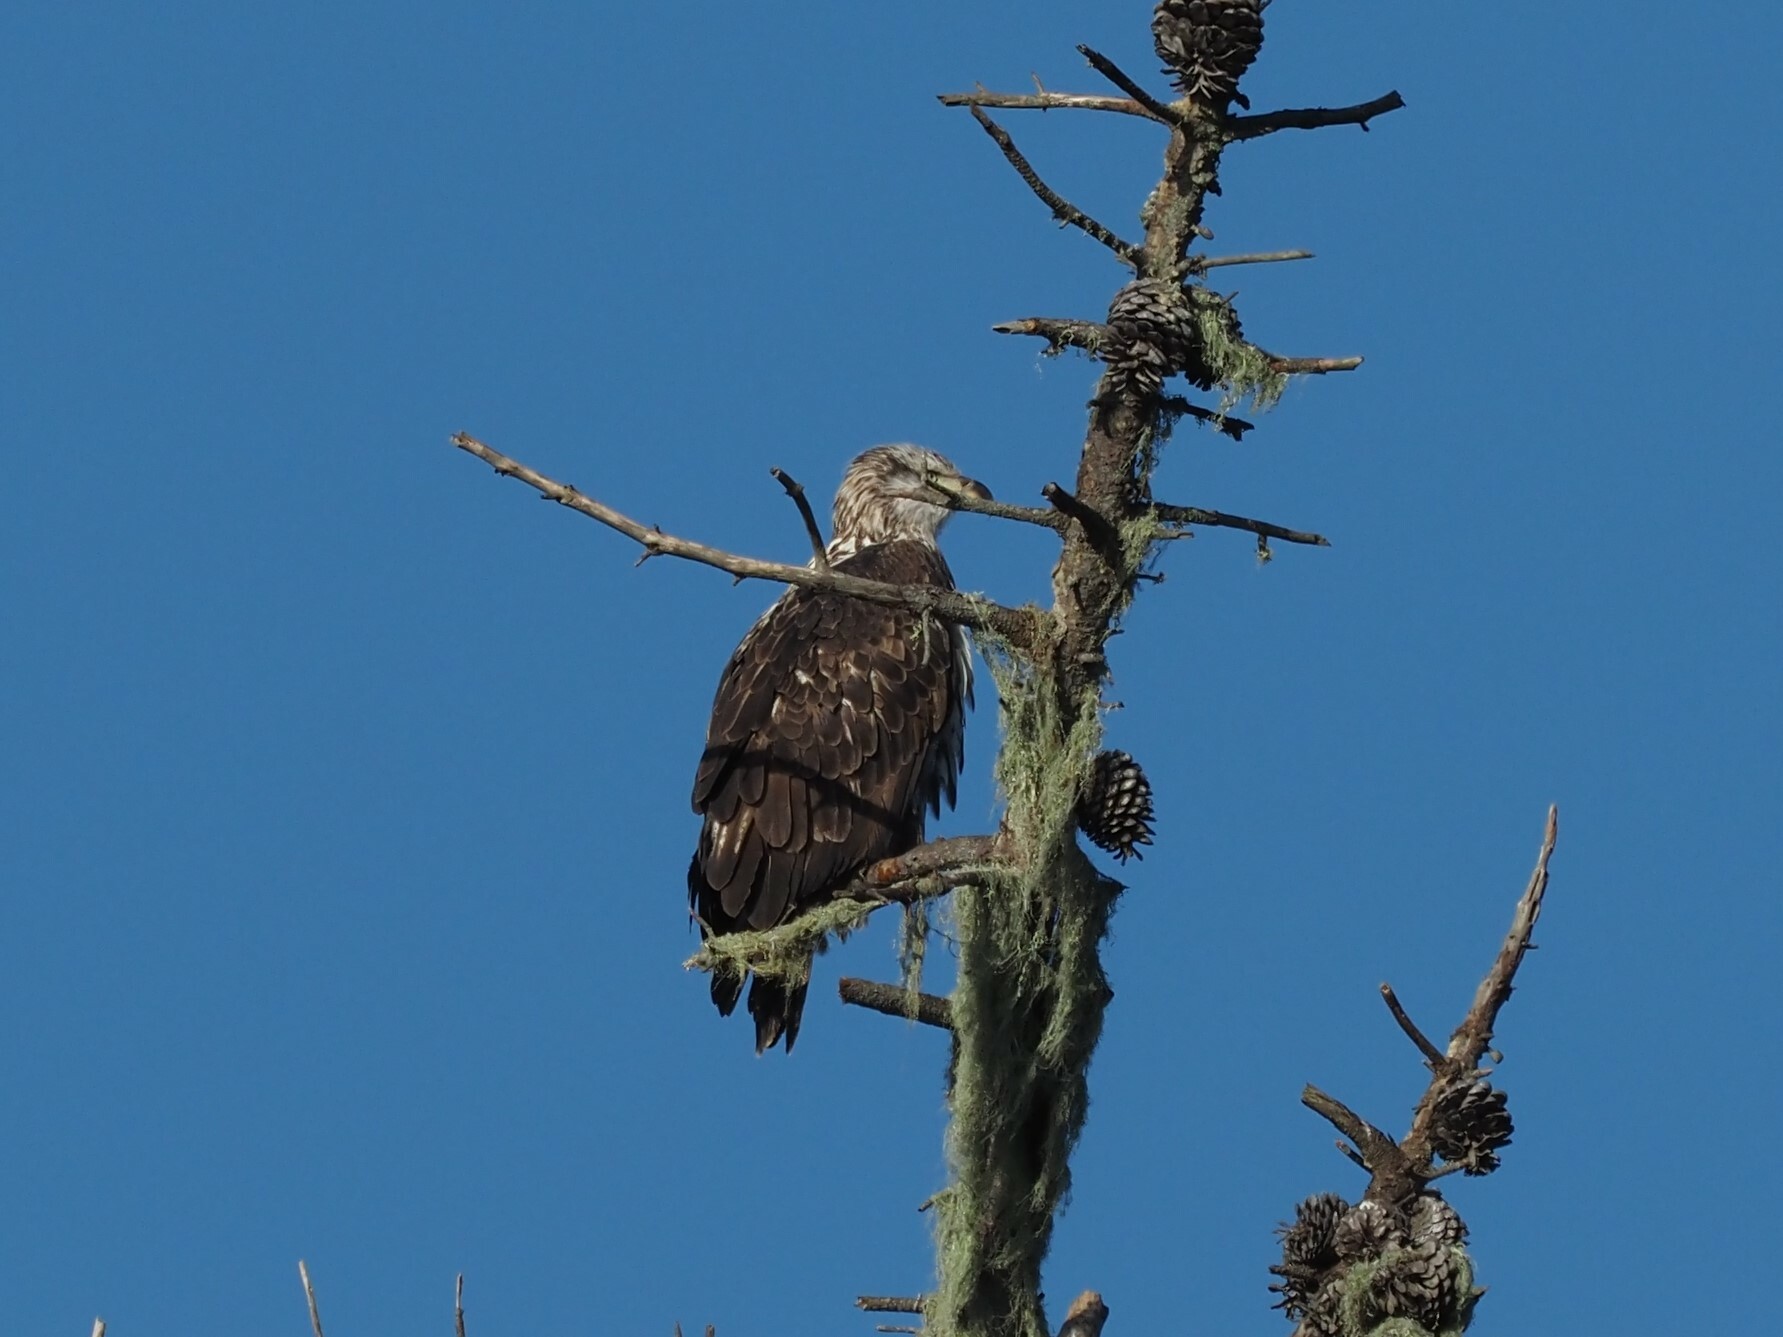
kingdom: Animalia
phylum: Chordata
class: Aves
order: Accipitriformes
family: Accipitridae
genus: Haliaeetus
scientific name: Haliaeetus leucocephalus
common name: Bald eagle
